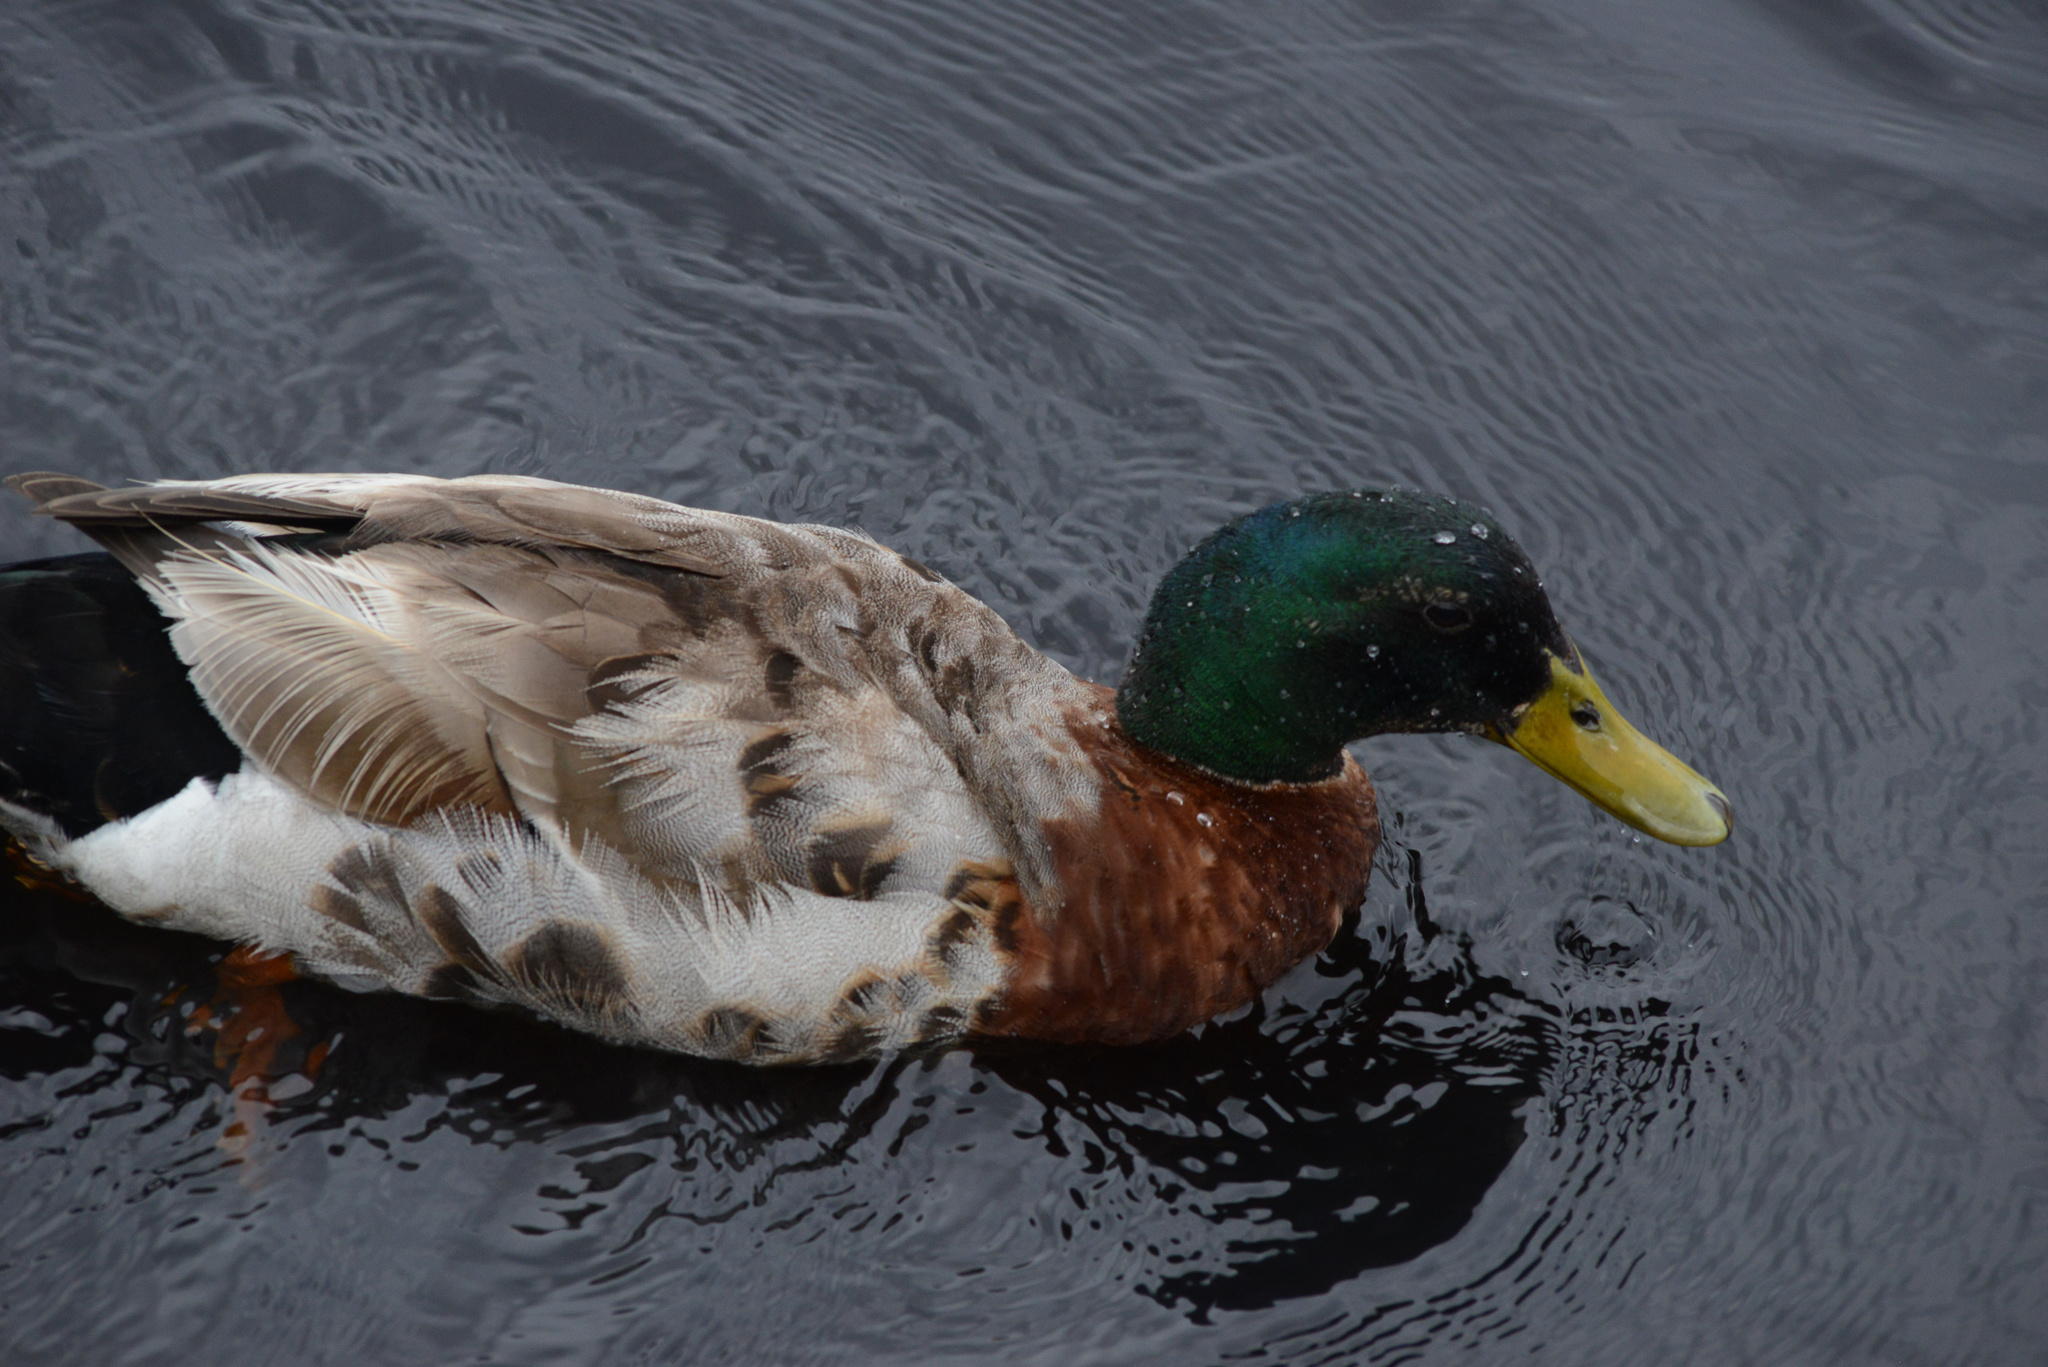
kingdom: Animalia
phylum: Chordata
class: Aves
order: Anseriformes
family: Anatidae
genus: Anas
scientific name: Anas platyrhynchos
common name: Mallard
